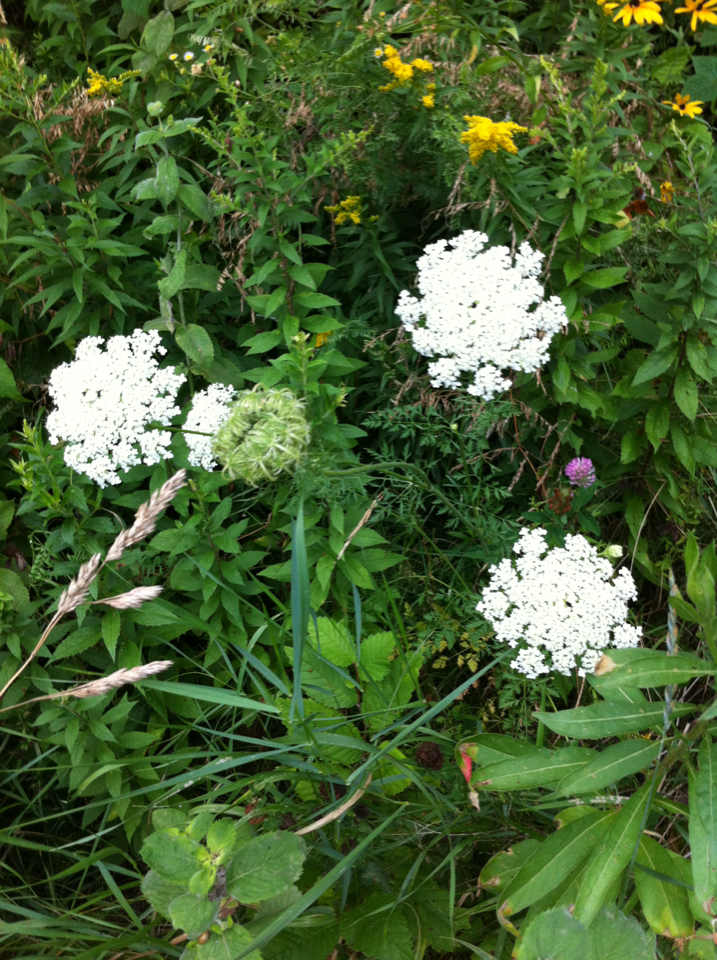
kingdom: Plantae
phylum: Tracheophyta
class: Magnoliopsida
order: Apiales
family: Apiaceae
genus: Daucus
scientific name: Daucus carota
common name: Wild carrot
